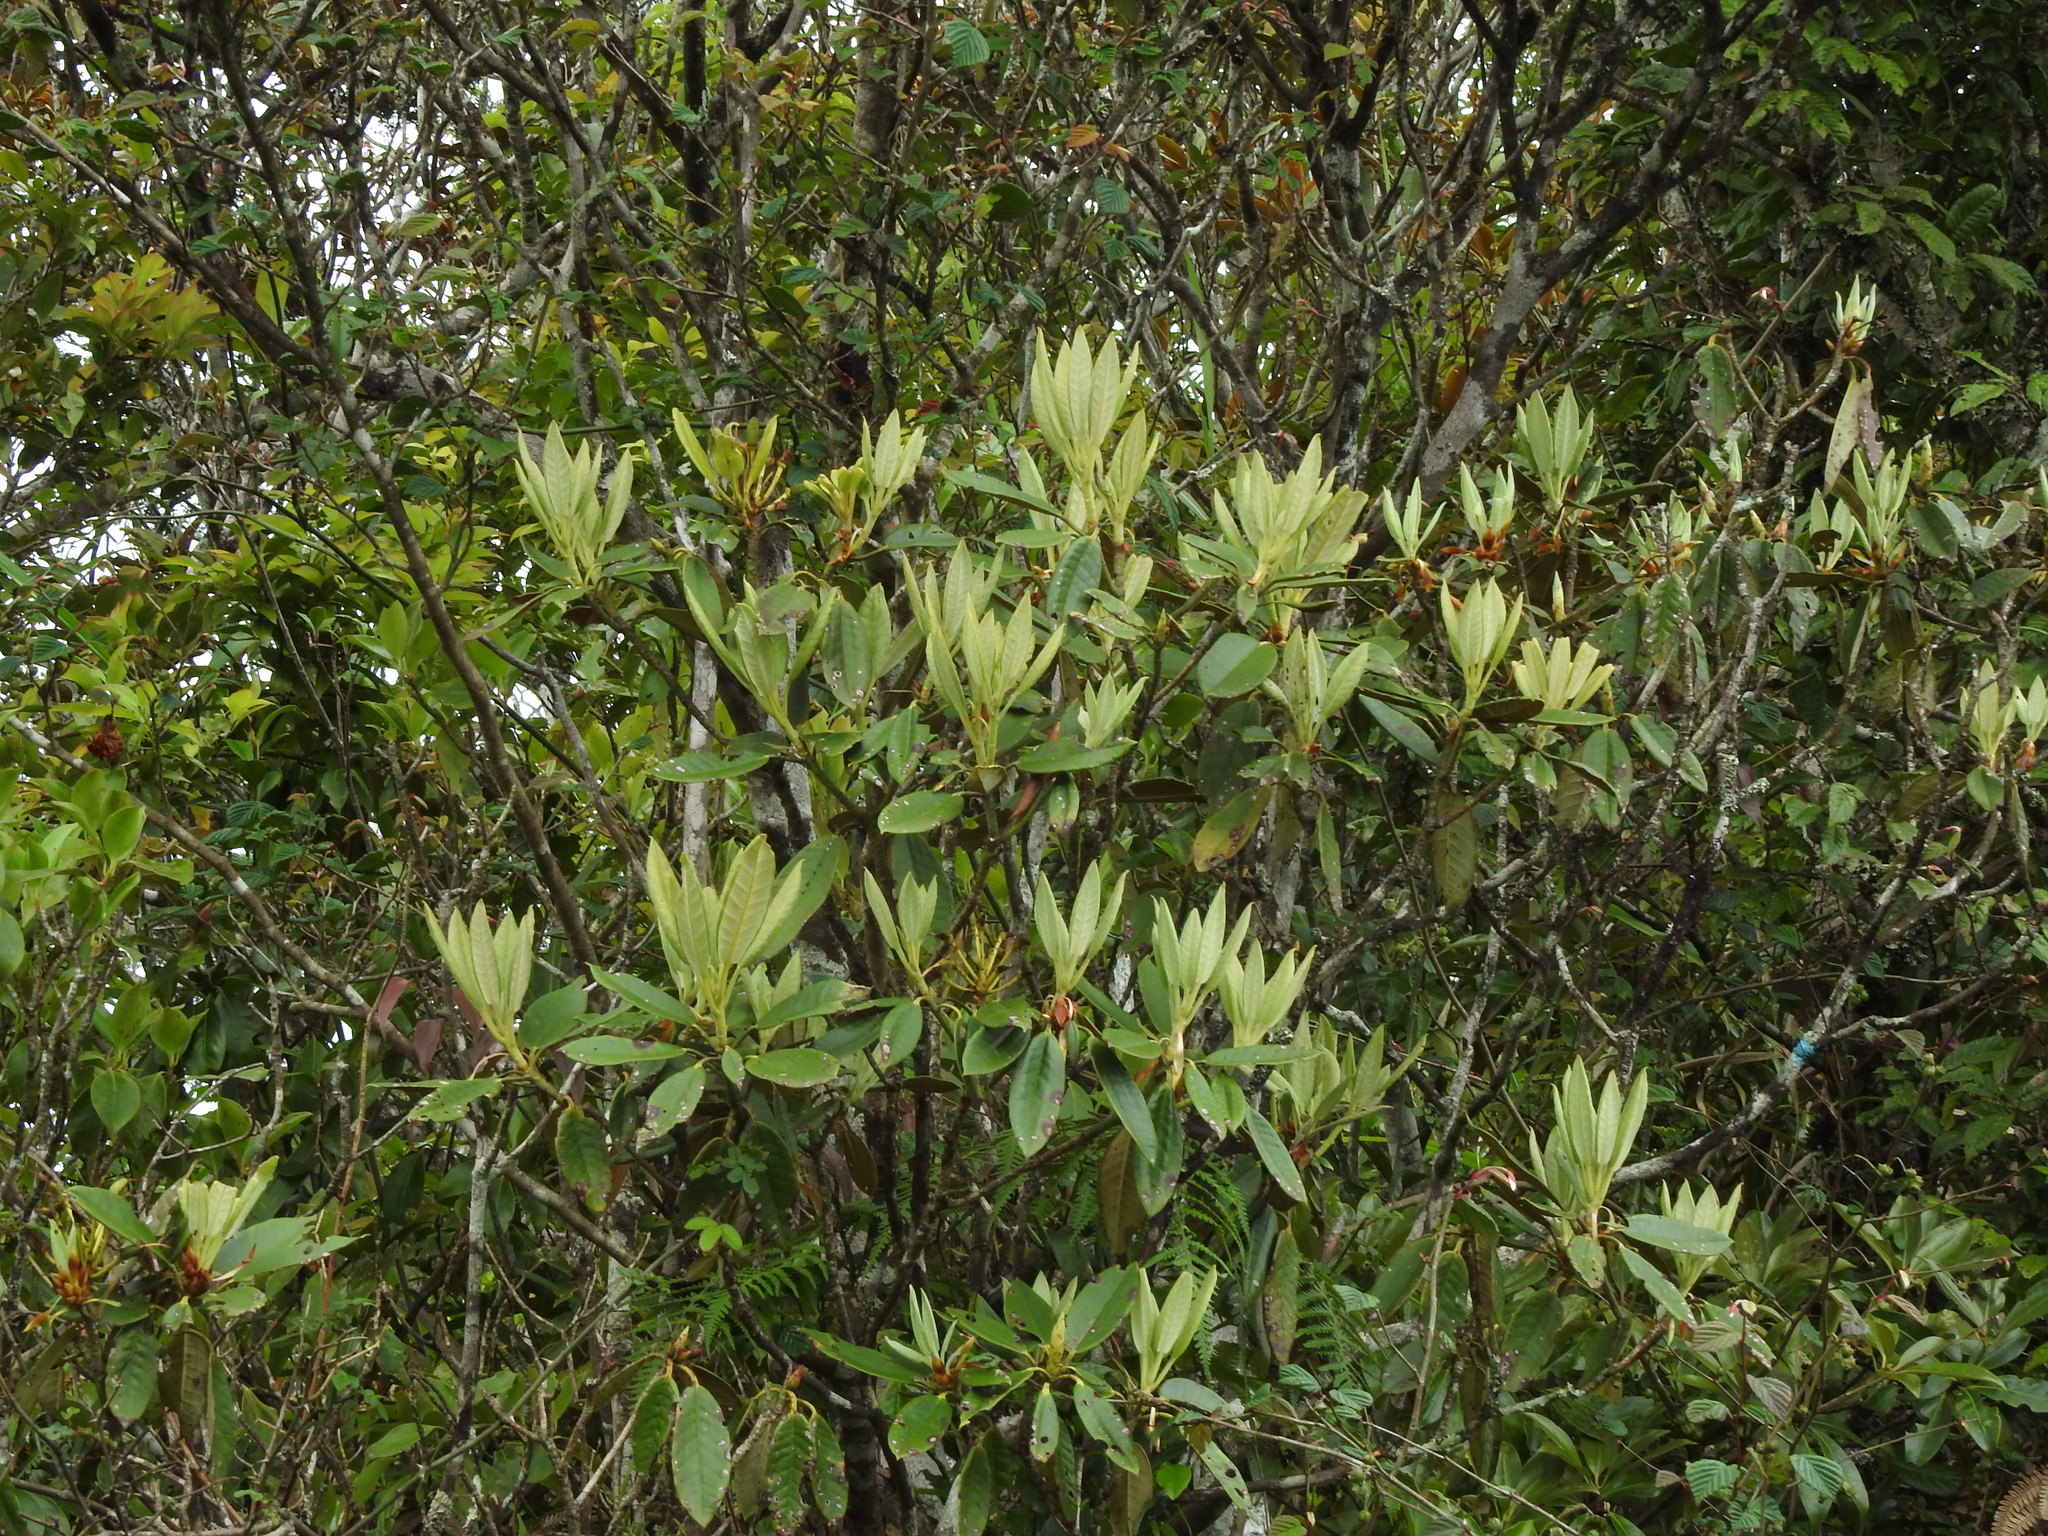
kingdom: Plantae
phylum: Tracheophyta
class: Magnoliopsida
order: Ericales
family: Ericaceae
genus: Rhododendron
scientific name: Rhododendron pseudochrysanthum
